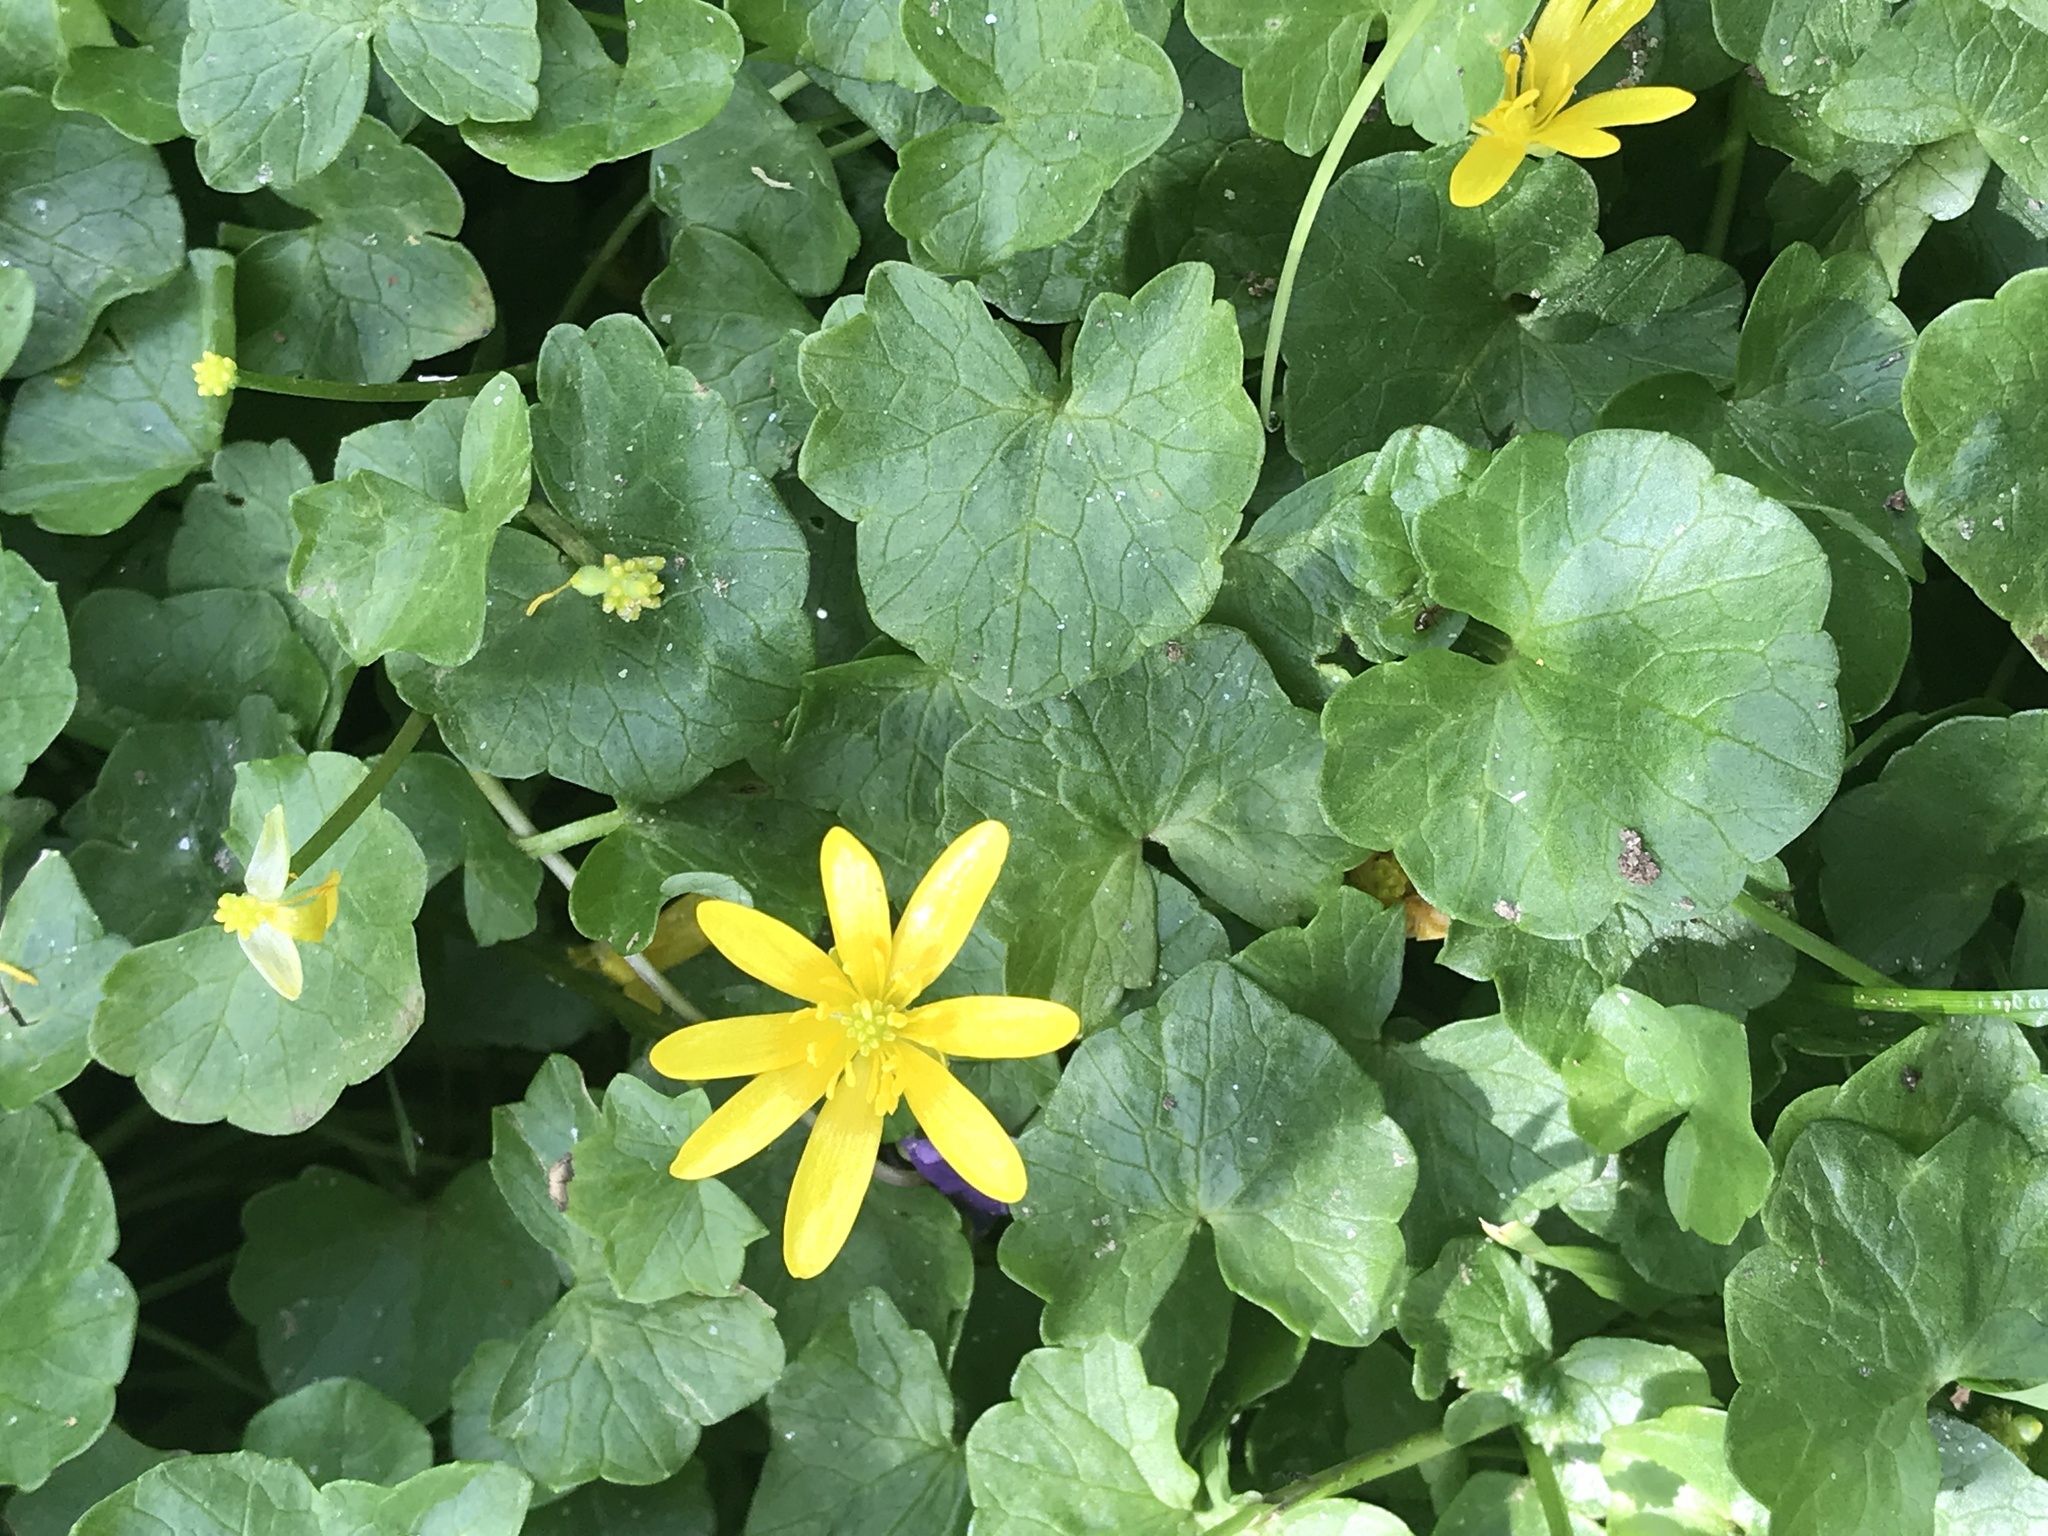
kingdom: Plantae
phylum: Tracheophyta
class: Magnoliopsida
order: Ranunculales
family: Ranunculaceae
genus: Ficaria
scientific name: Ficaria verna
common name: Lesser celandine
